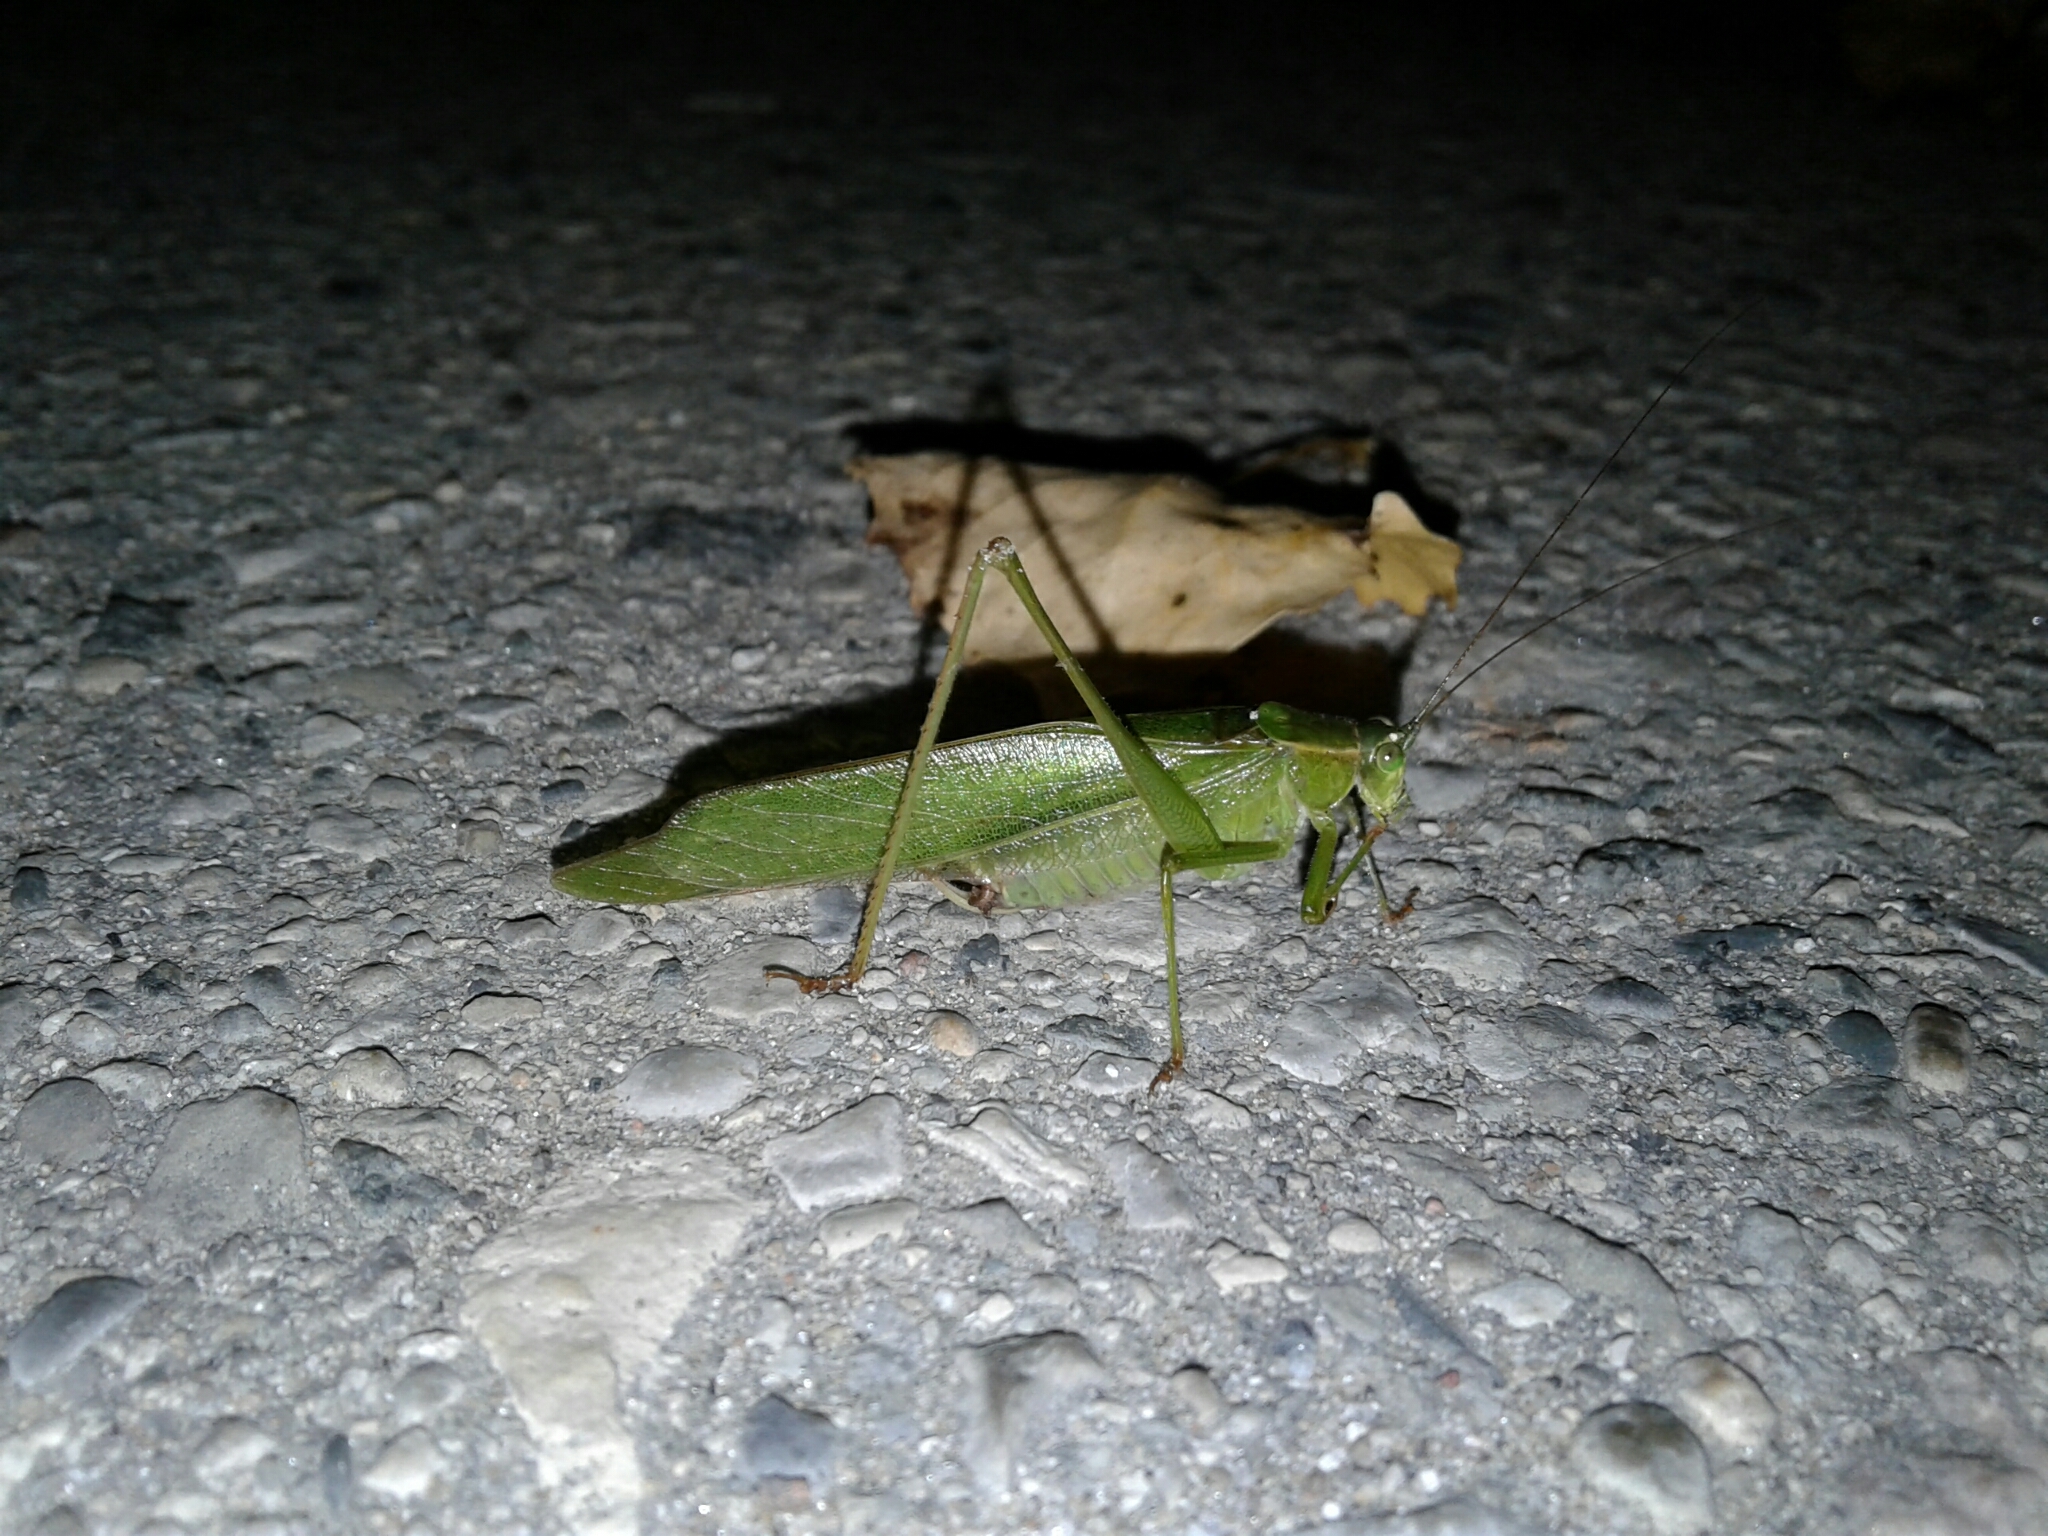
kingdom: Animalia
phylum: Arthropoda
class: Insecta
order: Orthoptera
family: Tettigoniidae
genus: Scudderia
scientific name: Scudderia furcata
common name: Fork-tailed bush katydid
